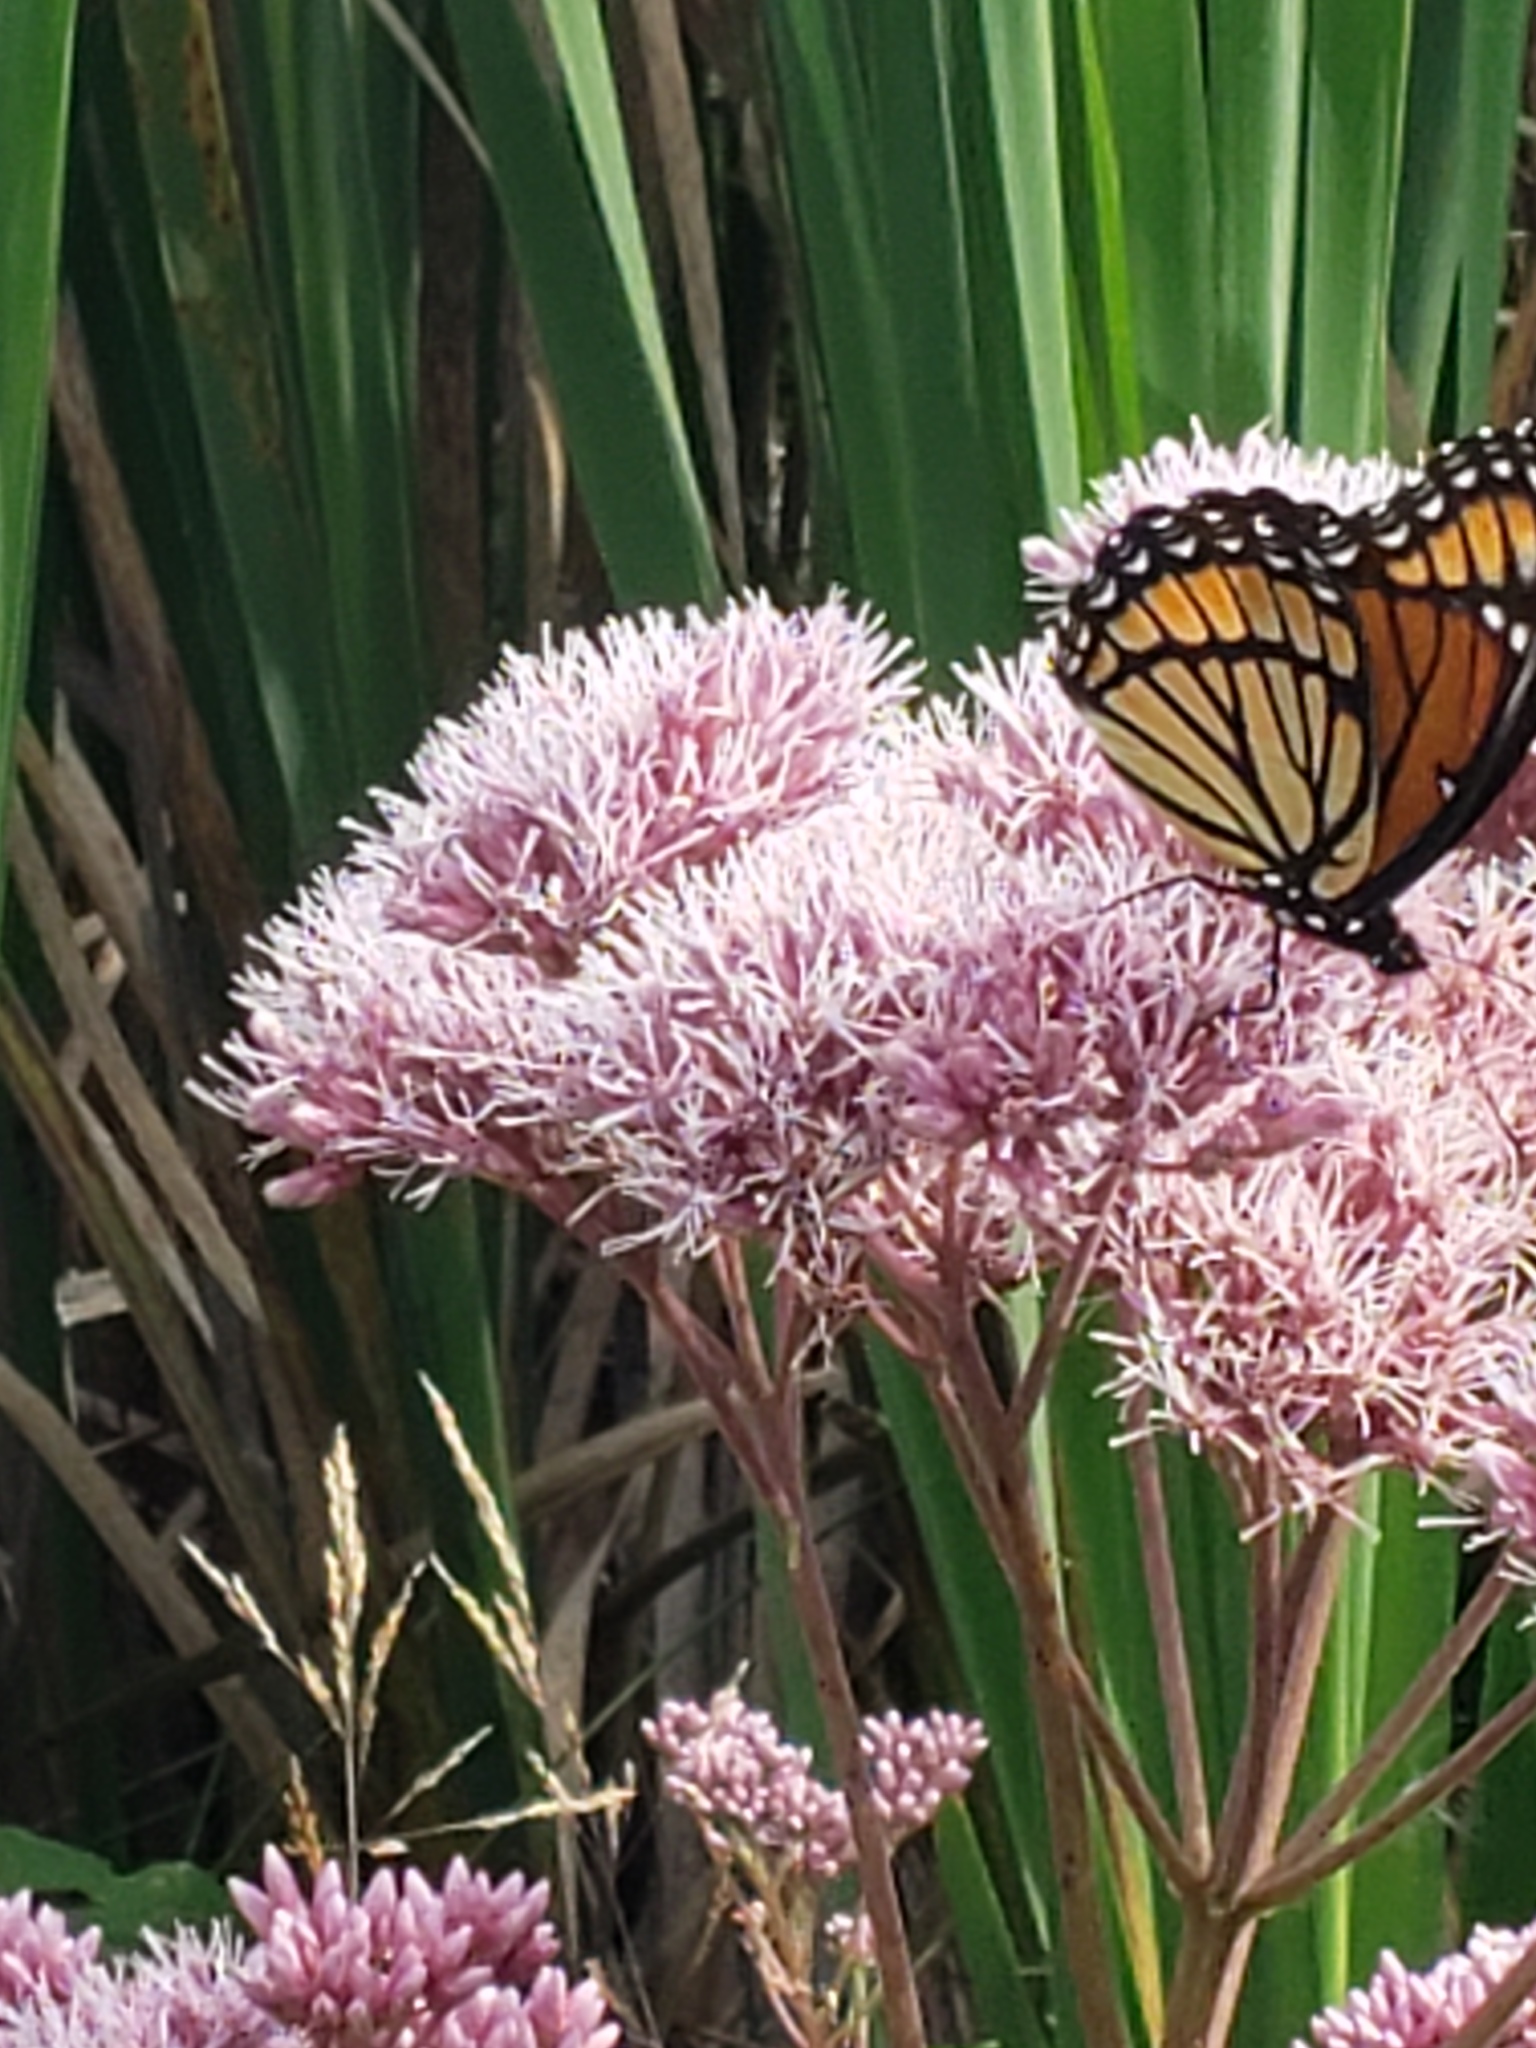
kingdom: Animalia
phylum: Arthropoda
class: Insecta
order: Lepidoptera
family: Nymphalidae
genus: Limenitis
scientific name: Limenitis archippus
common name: Viceroy
